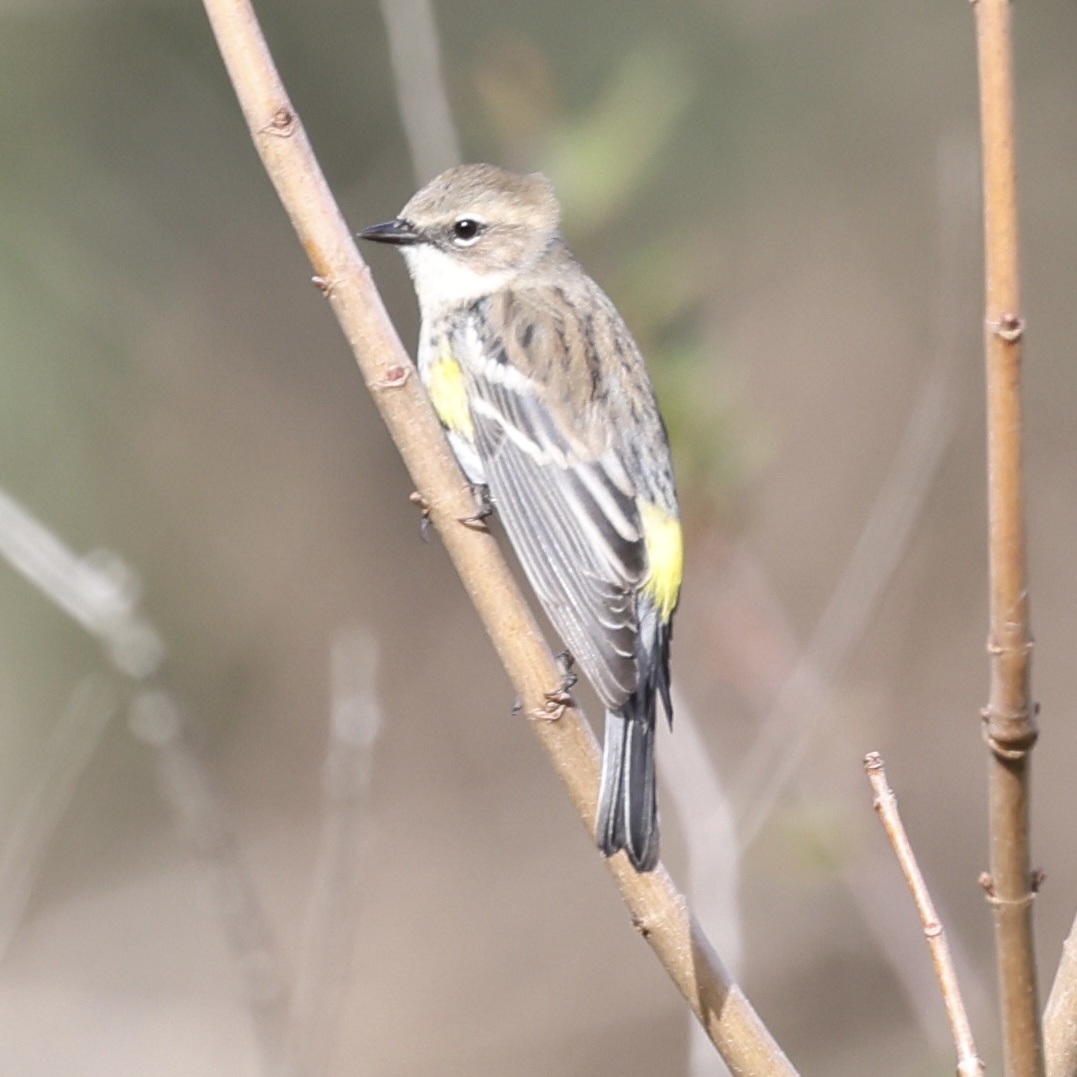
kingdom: Animalia
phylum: Chordata
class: Aves
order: Passeriformes
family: Parulidae
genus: Setophaga
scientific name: Setophaga coronata
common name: Myrtle warbler
